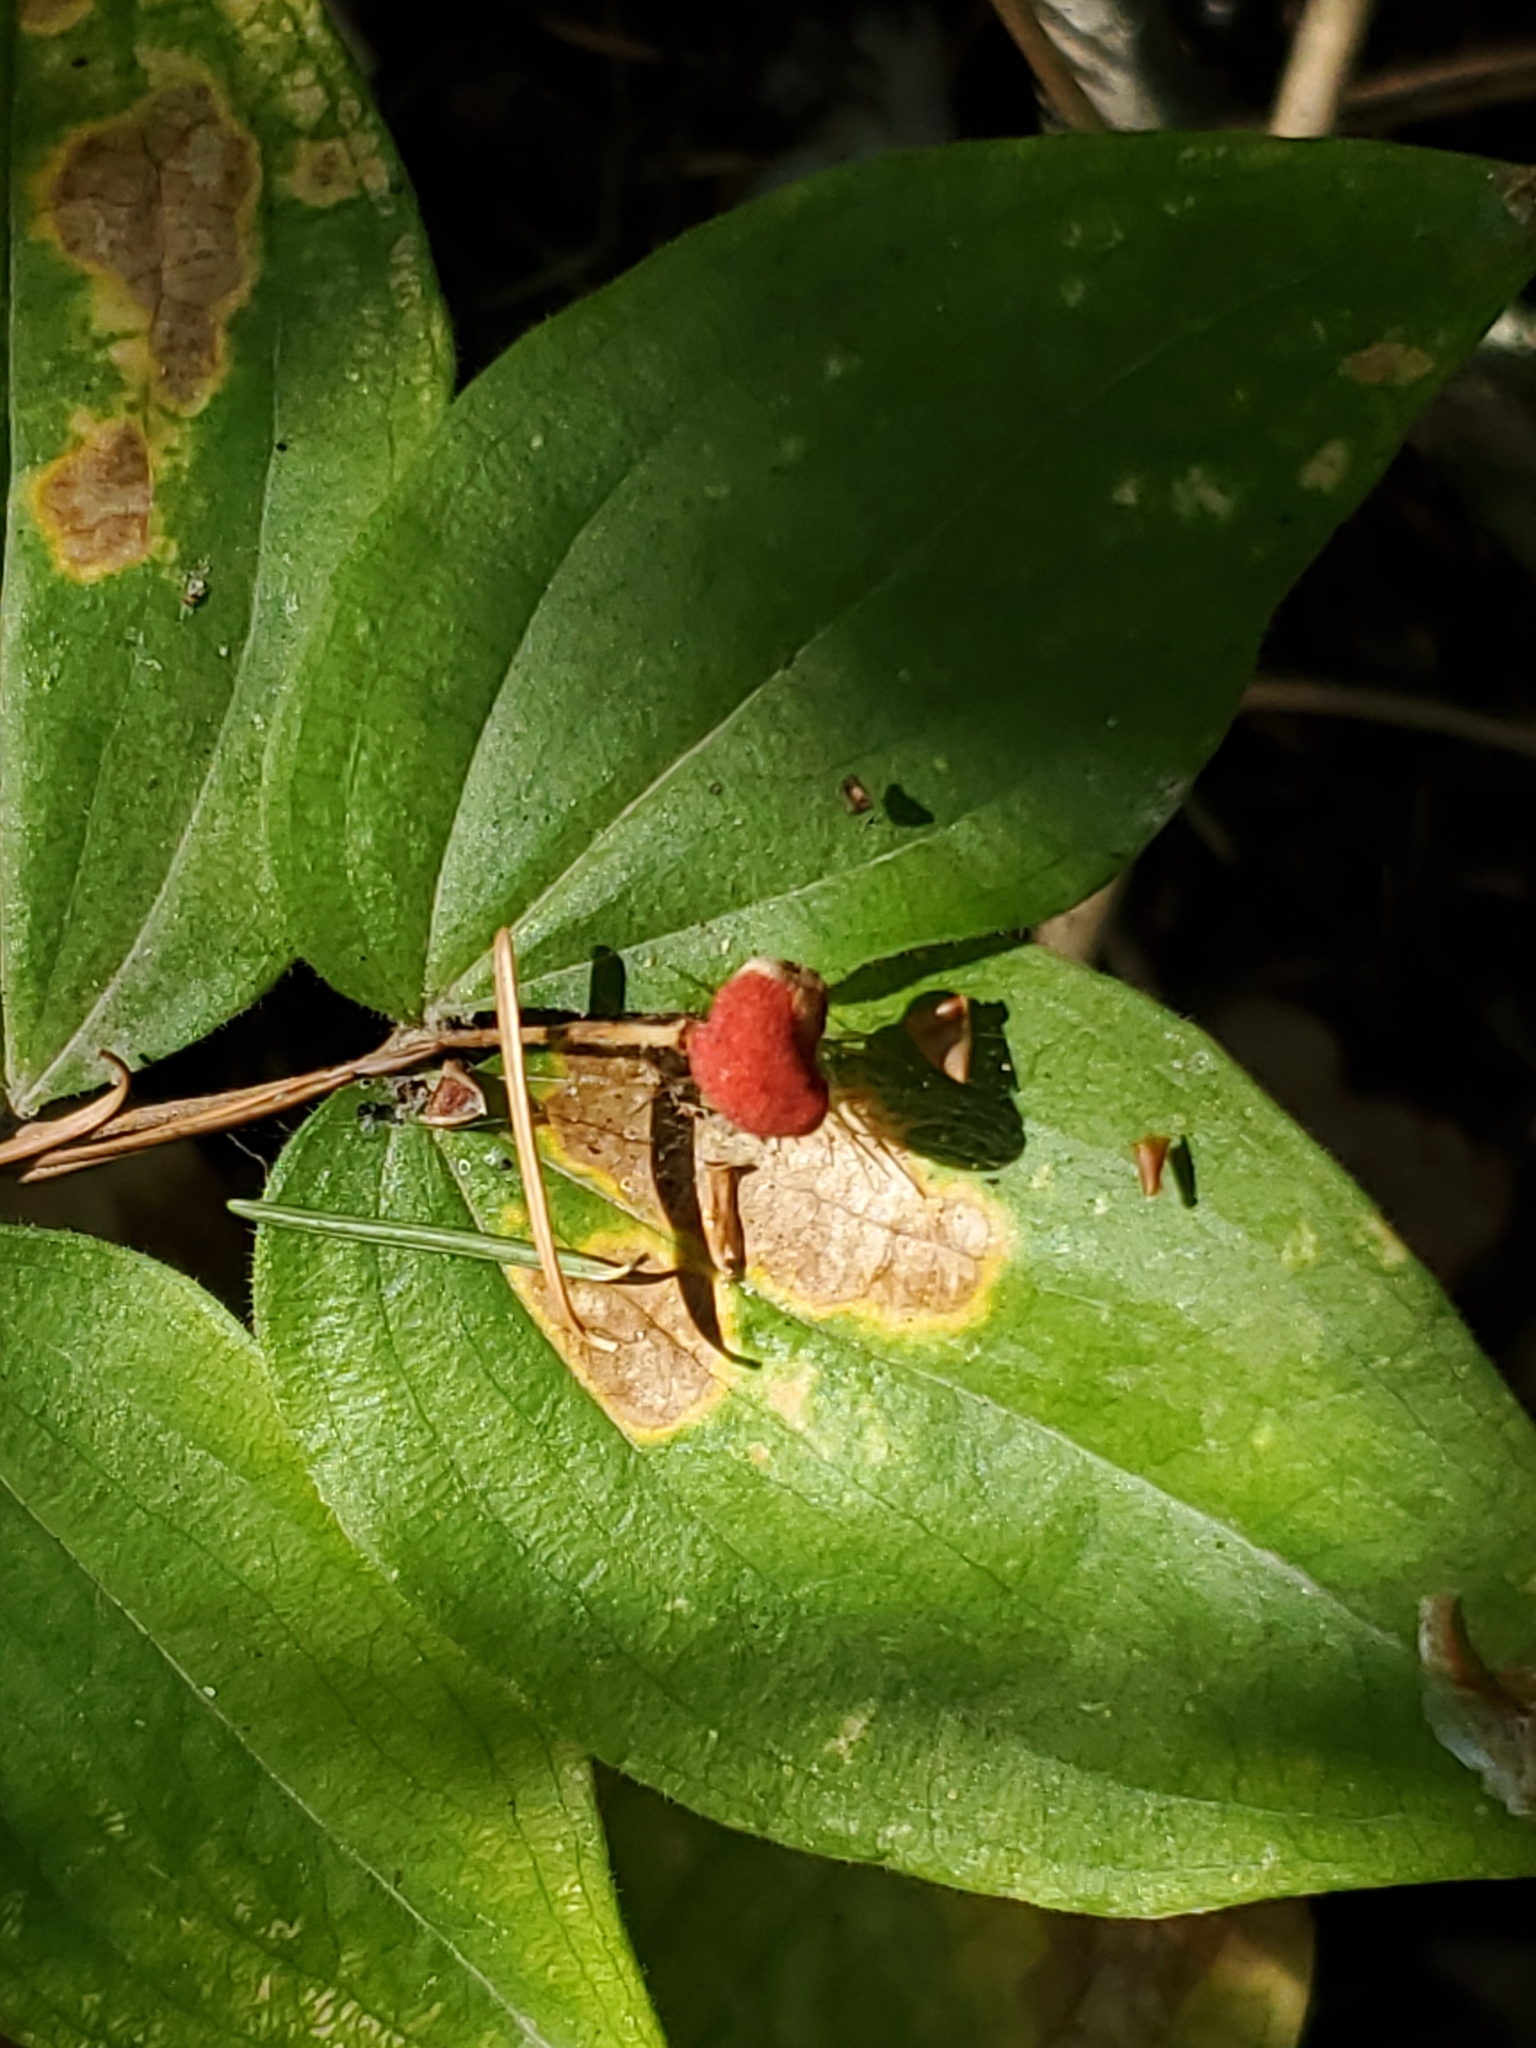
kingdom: Plantae
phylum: Tracheophyta
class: Liliopsida
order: Liliales
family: Liliaceae
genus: Prosartes
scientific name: Prosartes trachycarpa
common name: Rough-fruit fairy-bells
